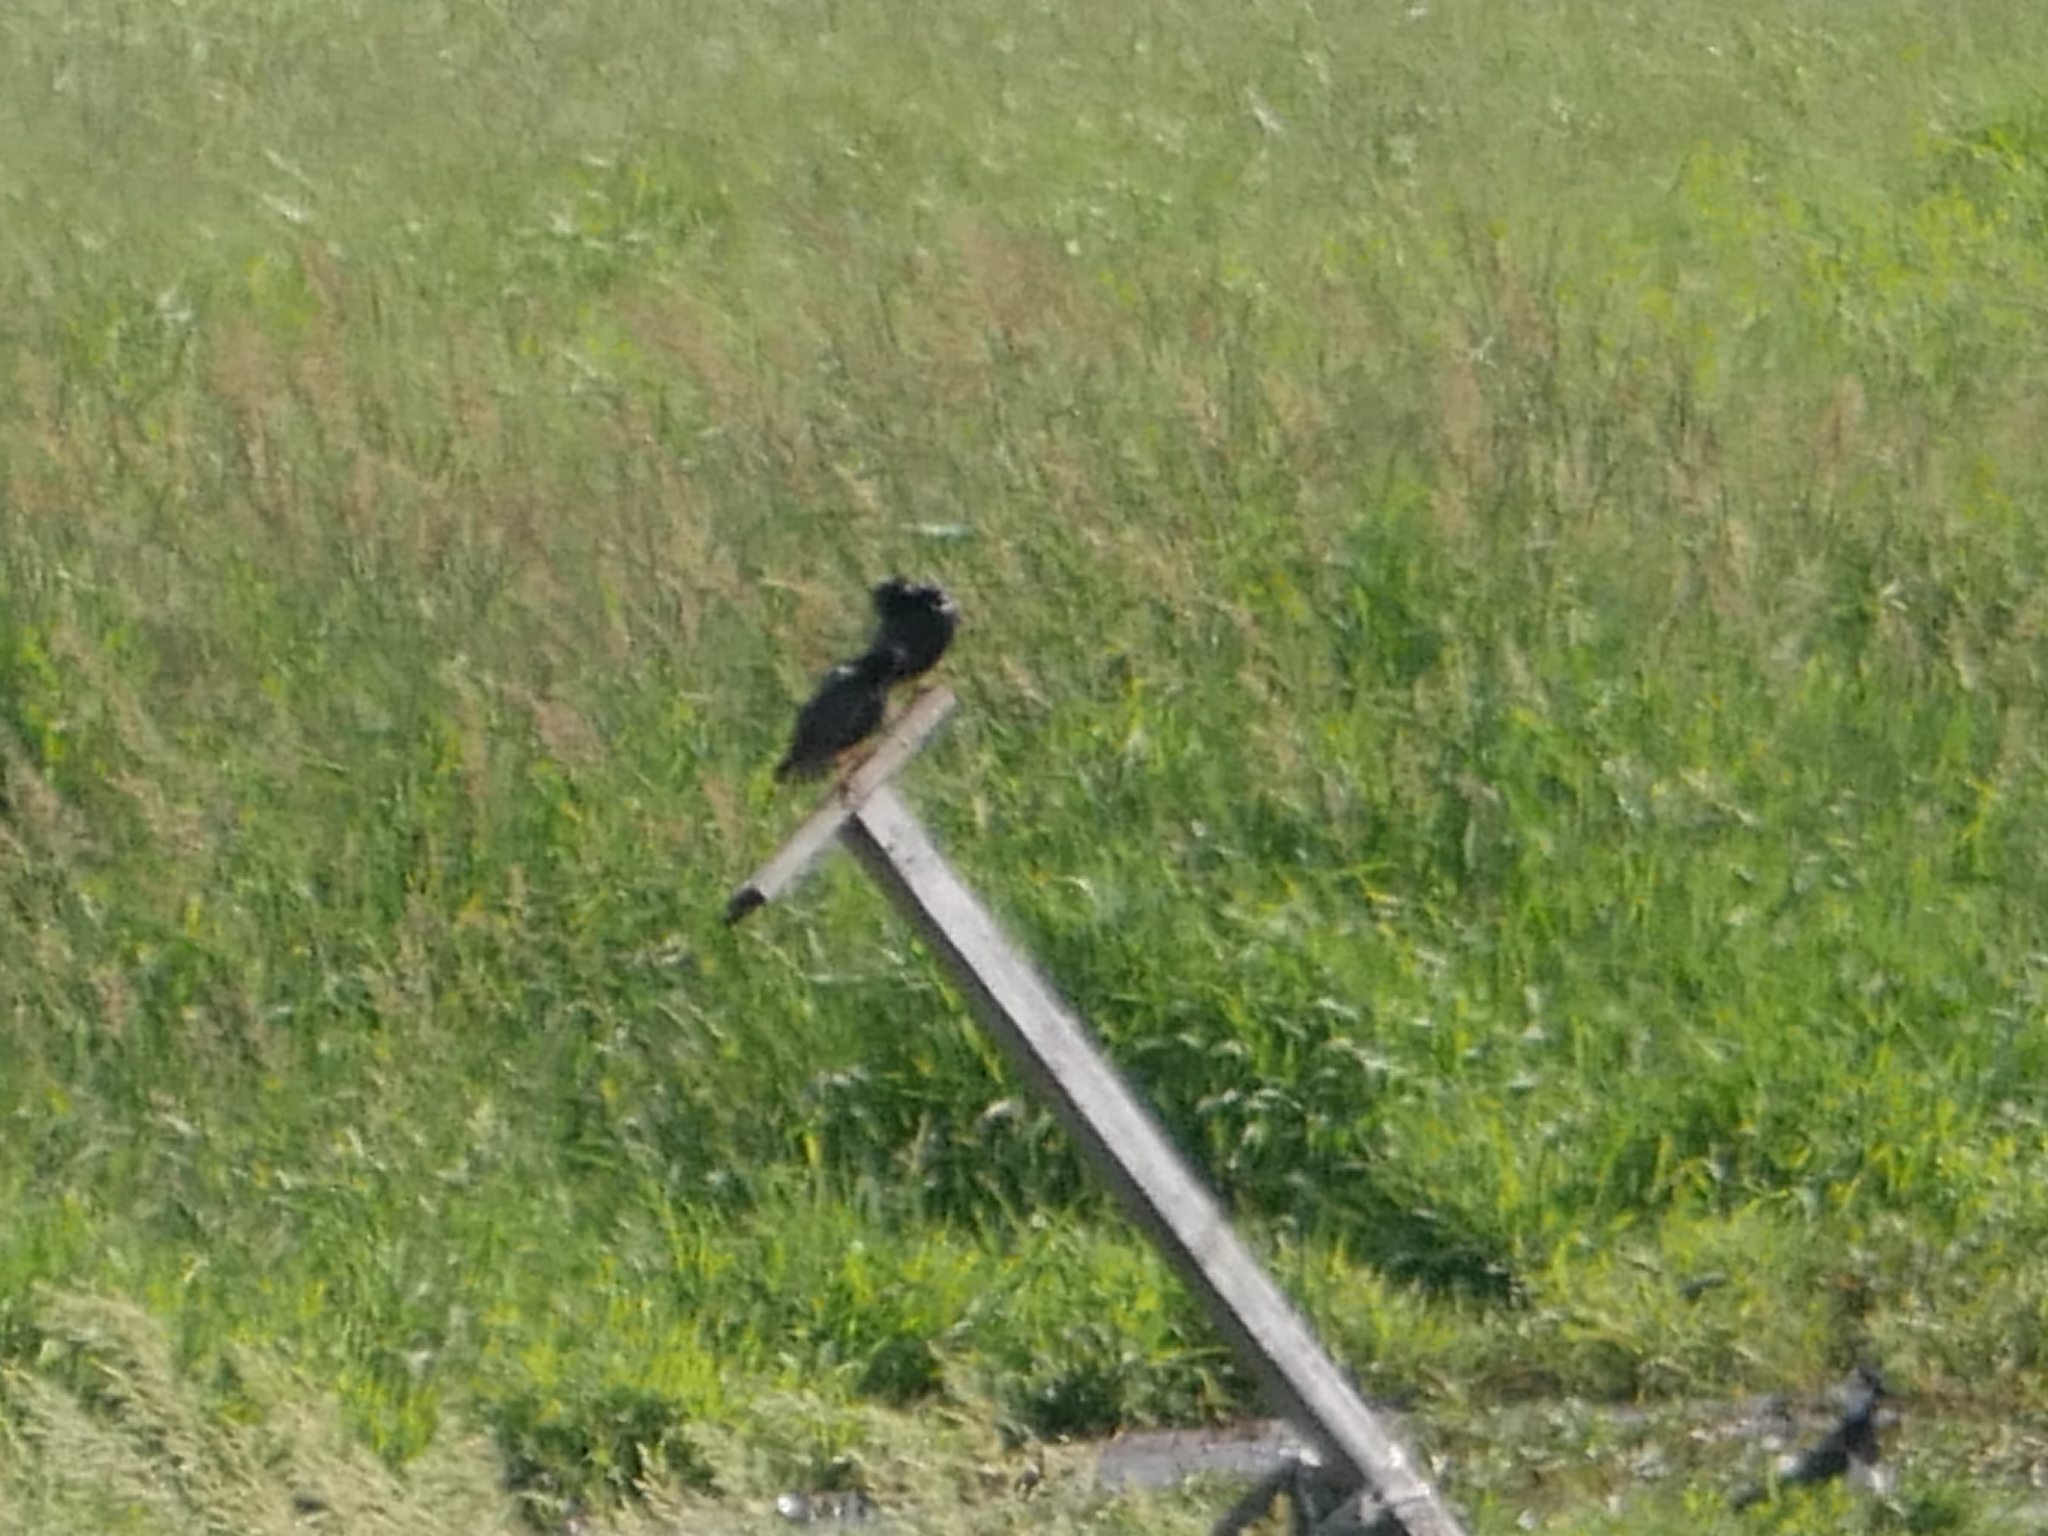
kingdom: Animalia
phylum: Chordata
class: Aves
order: Passeriformes
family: Sturnidae
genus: Sturnus
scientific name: Sturnus vulgaris
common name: Common starling
